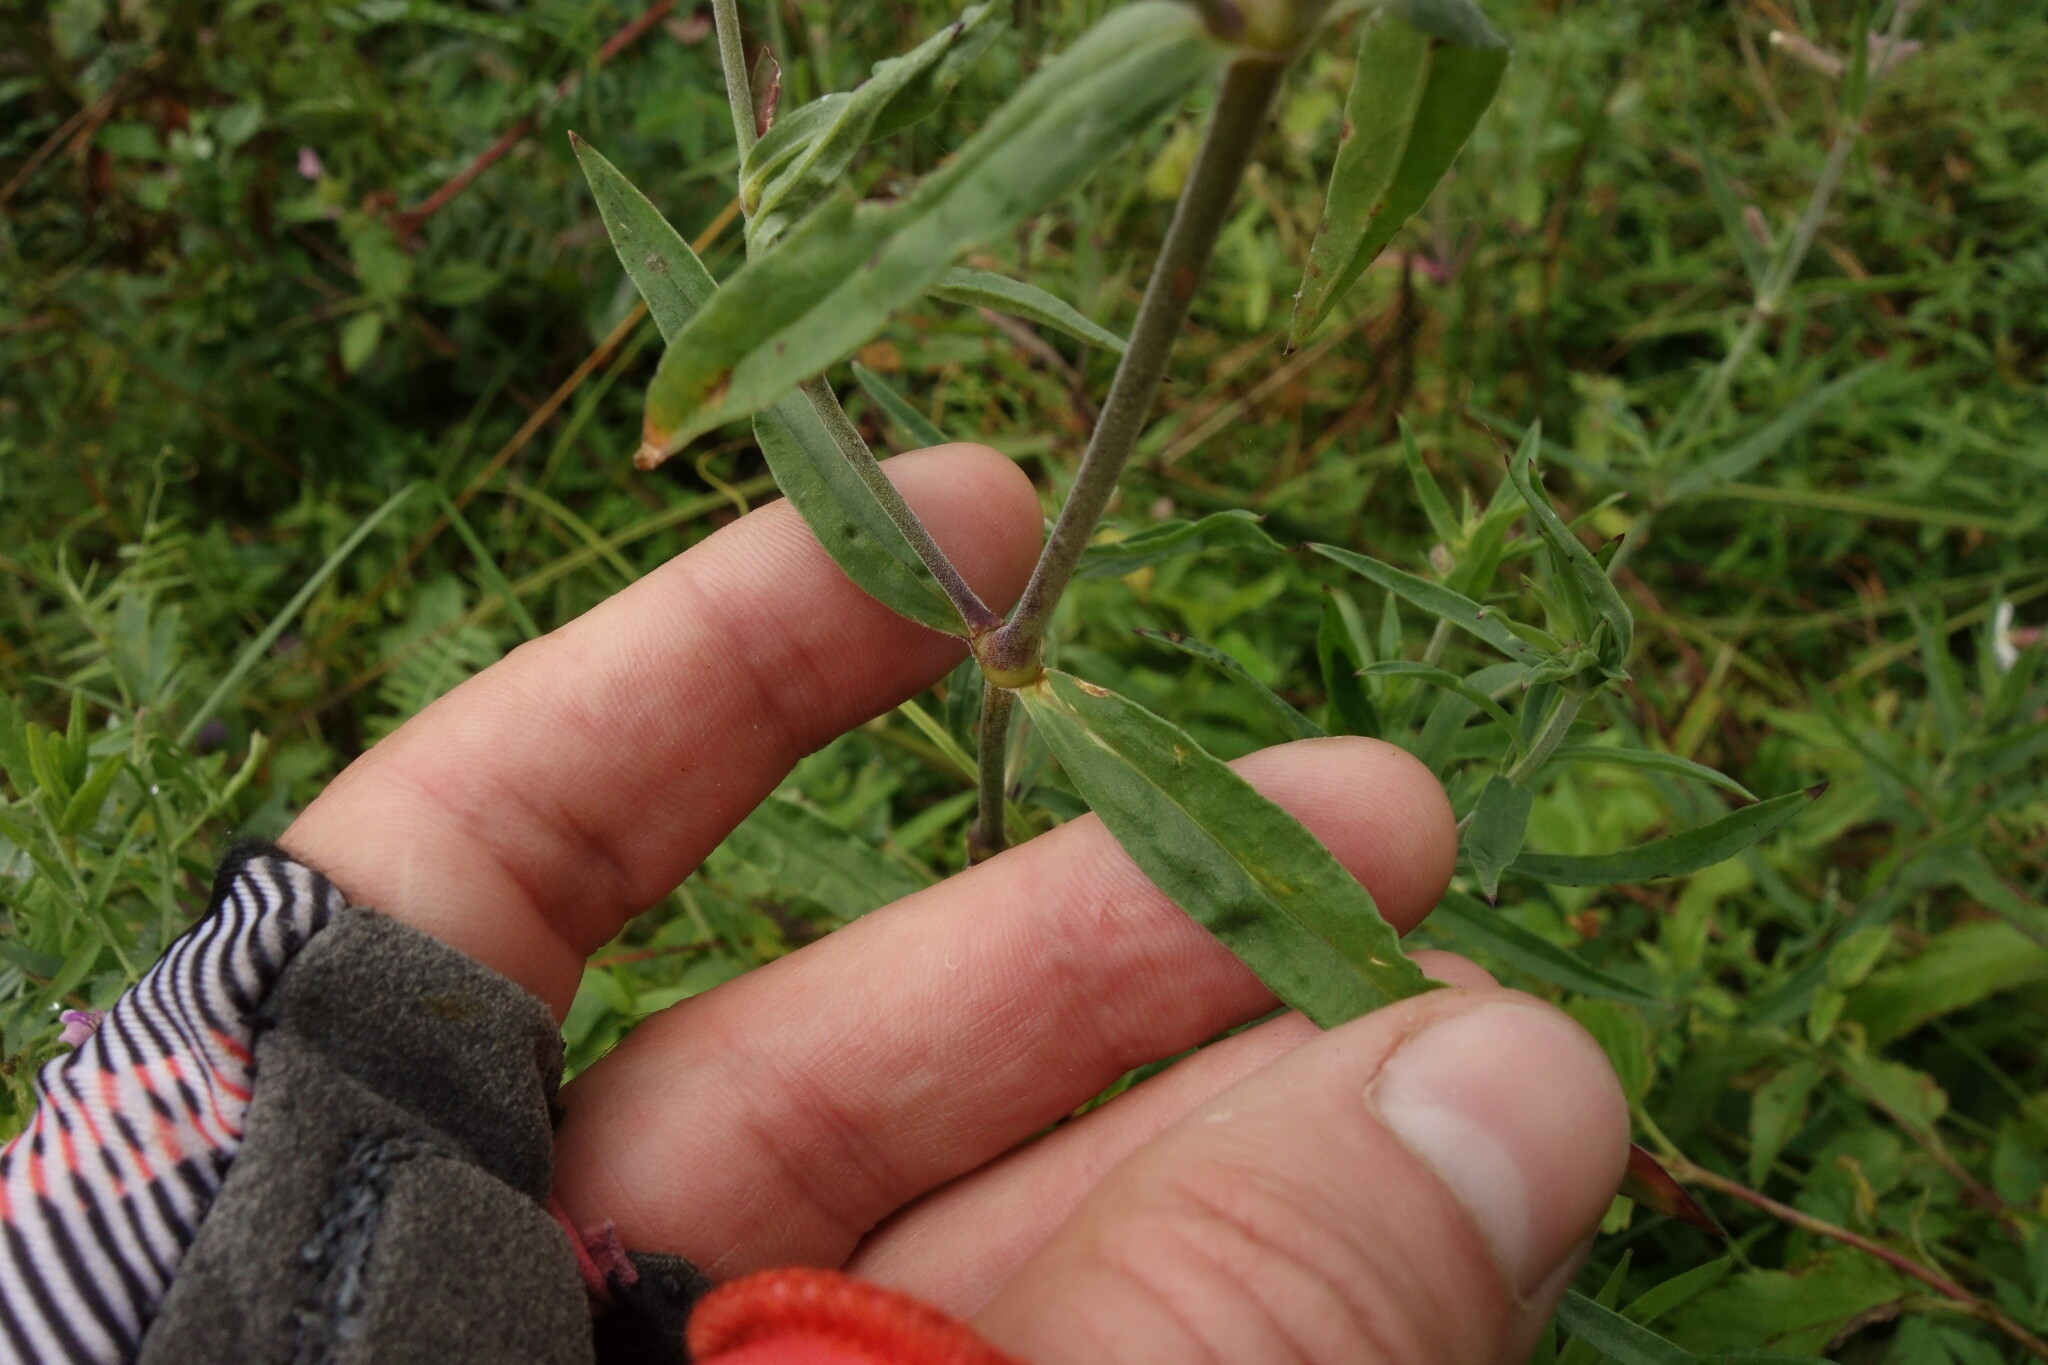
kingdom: Plantae
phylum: Tracheophyta
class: Magnoliopsida
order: Caryophyllales
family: Caryophyllaceae
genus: Silene
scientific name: Silene amoena
